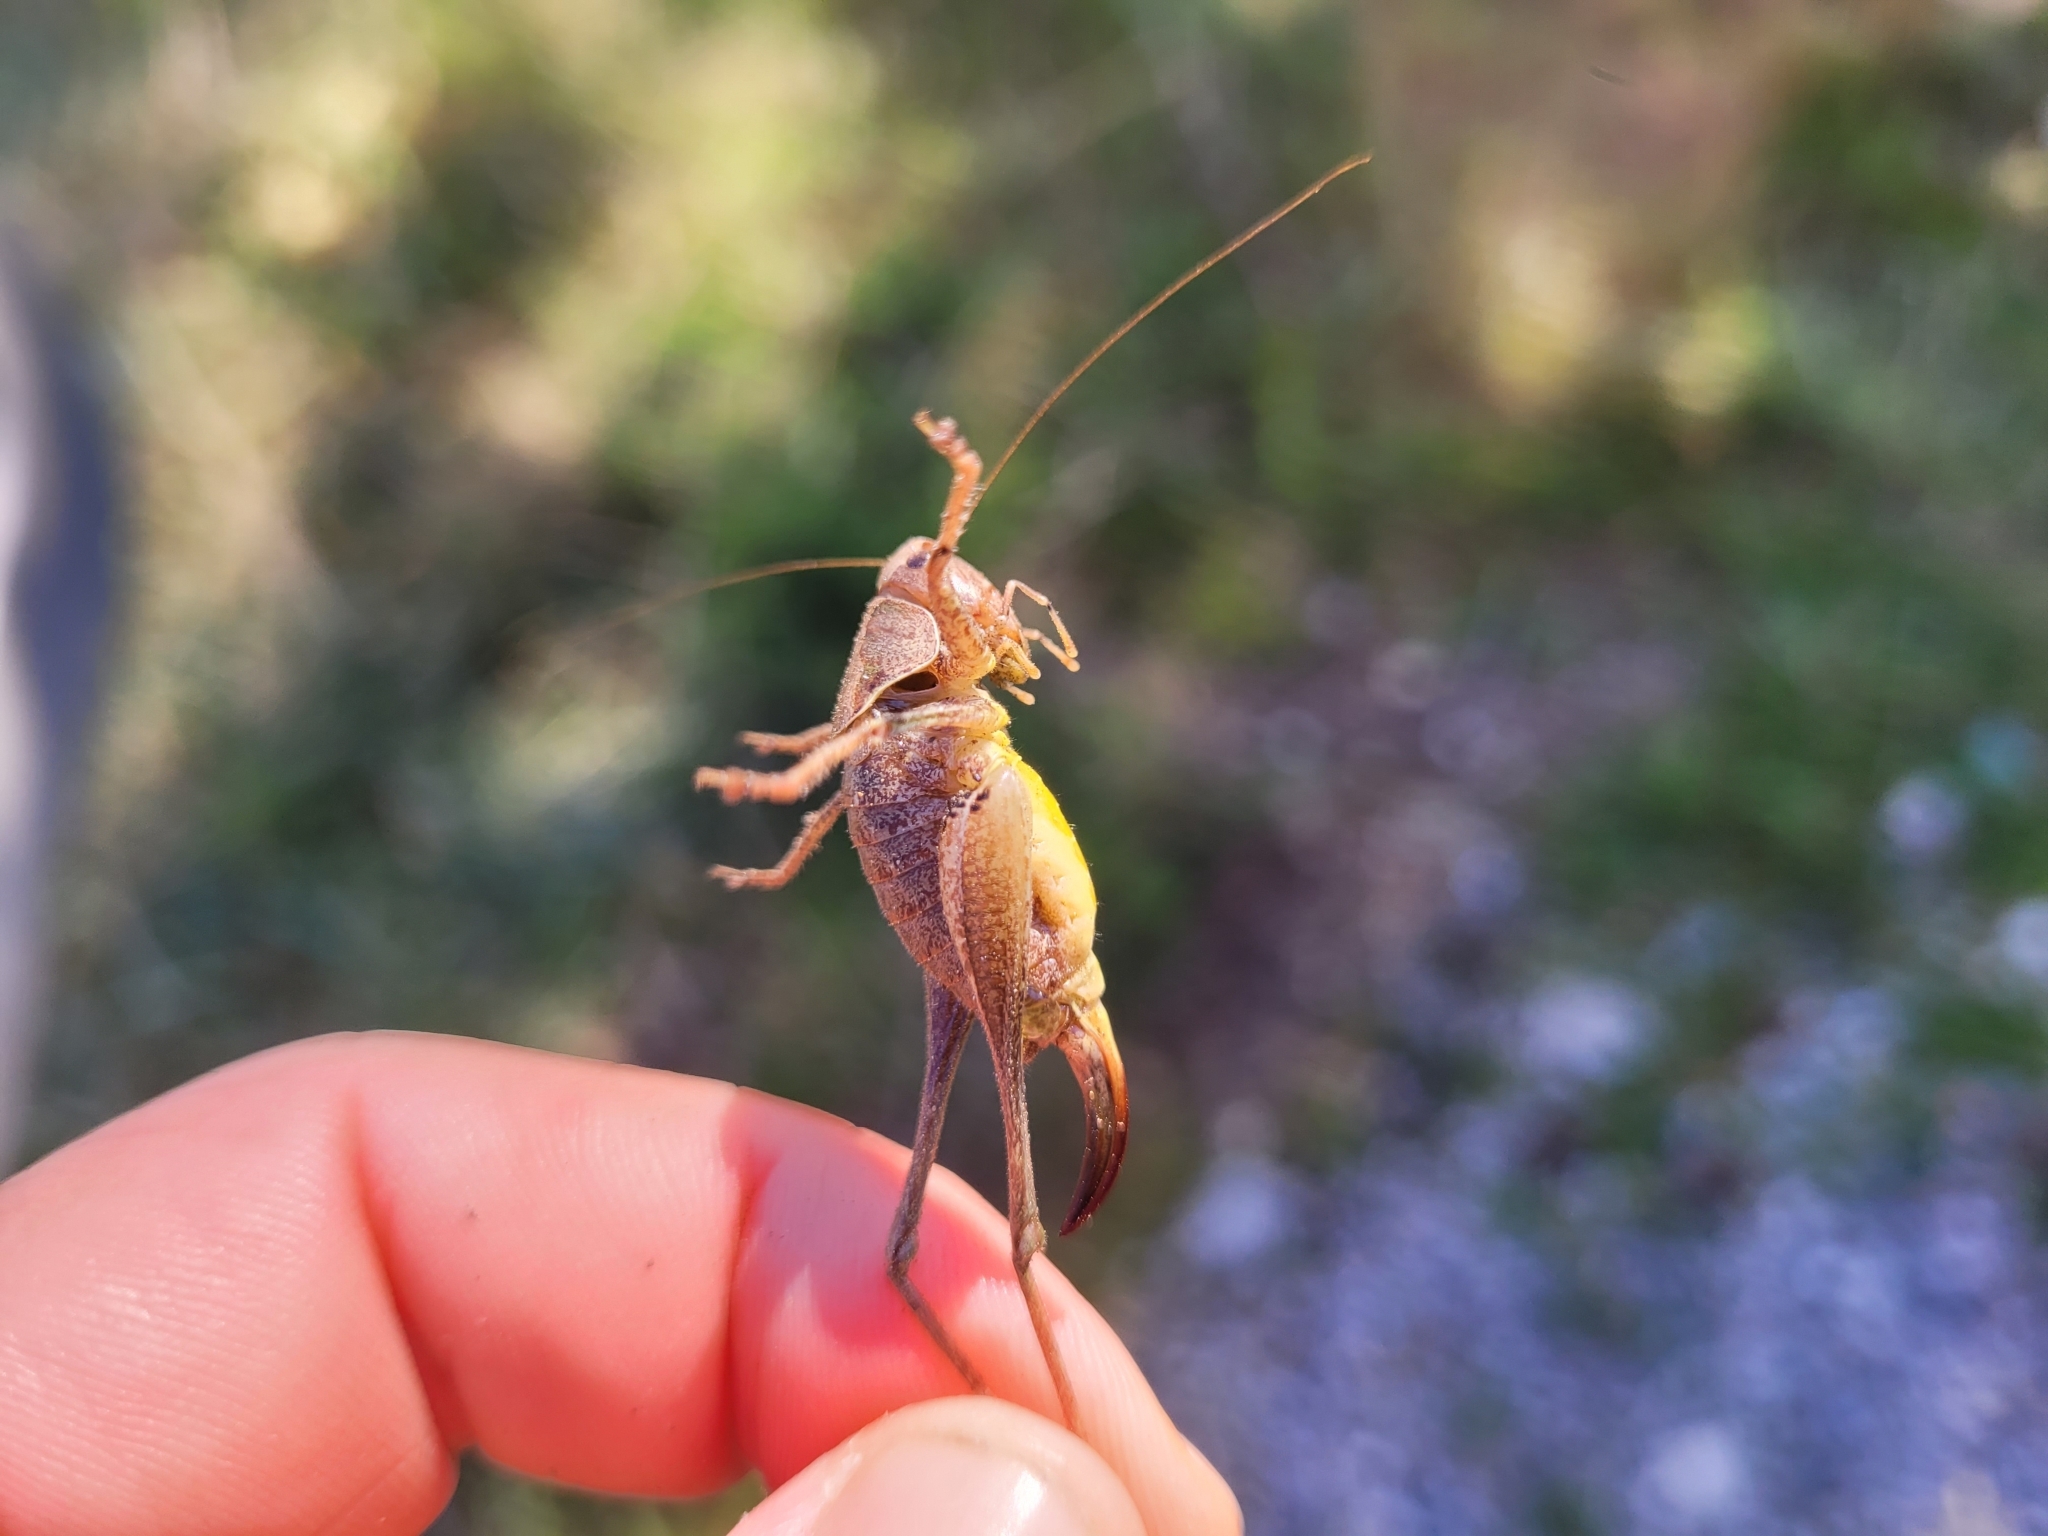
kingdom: Animalia
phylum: Arthropoda
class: Insecta
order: Orthoptera
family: Tettigoniidae
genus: Pholidoptera
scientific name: Pholidoptera griseoaptera
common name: Dark bush-cricket
